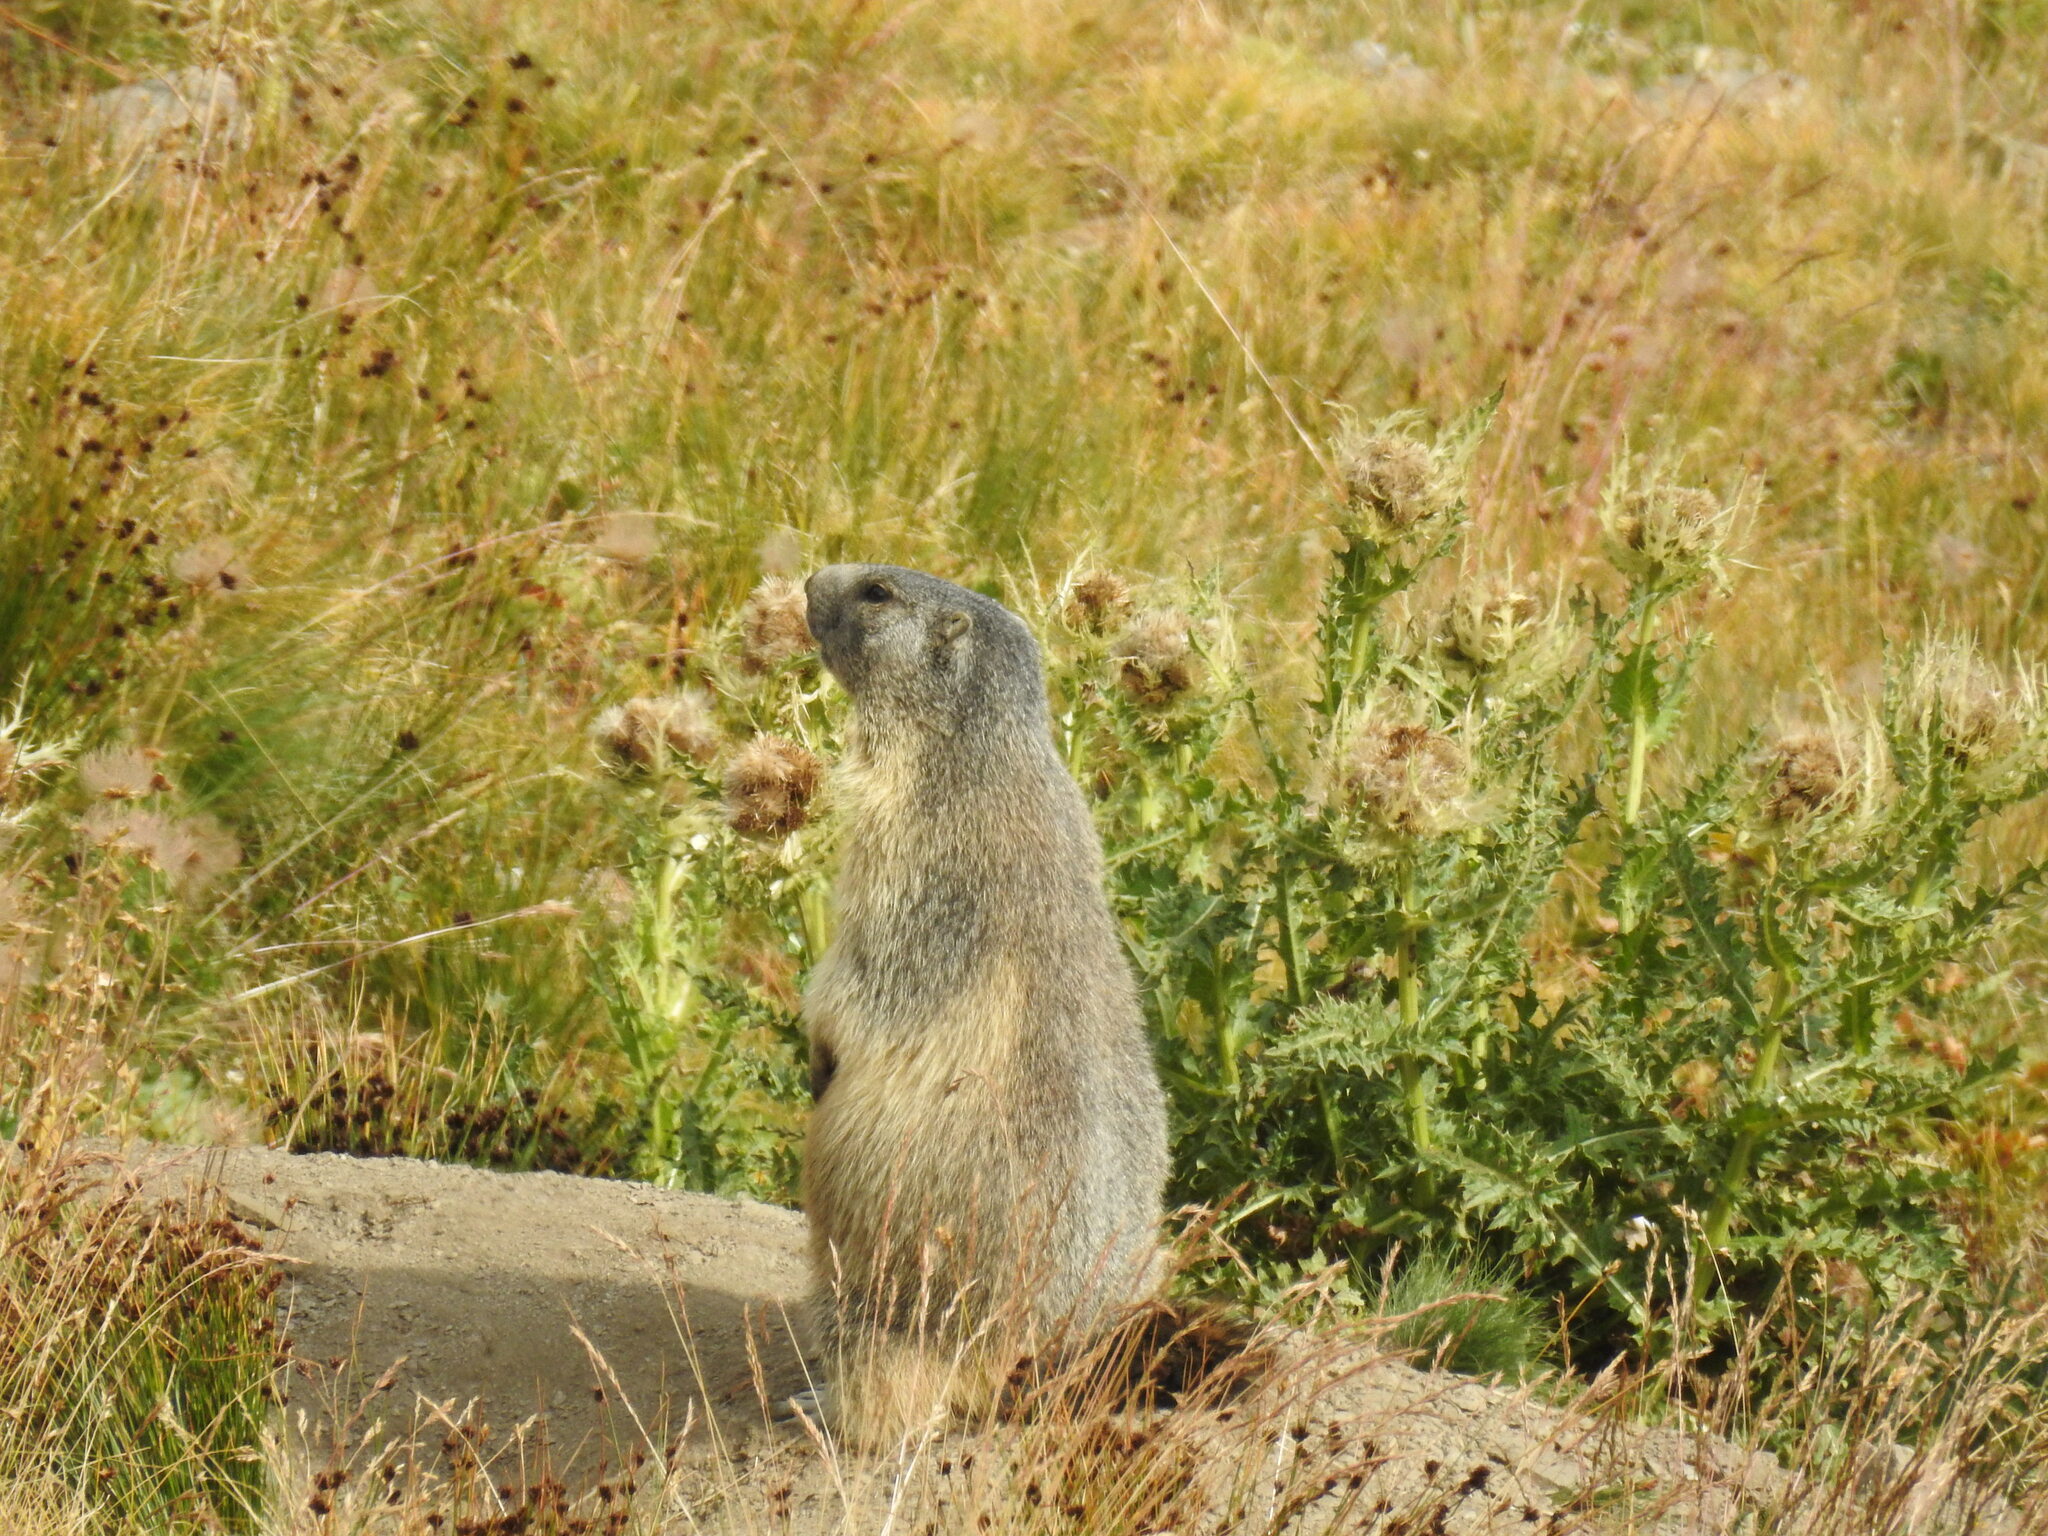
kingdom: Animalia
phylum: Chordata
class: Mammalia
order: Rodentia
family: Sciuridae
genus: Marmota
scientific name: Marmota marmota
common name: Alpine marmot
